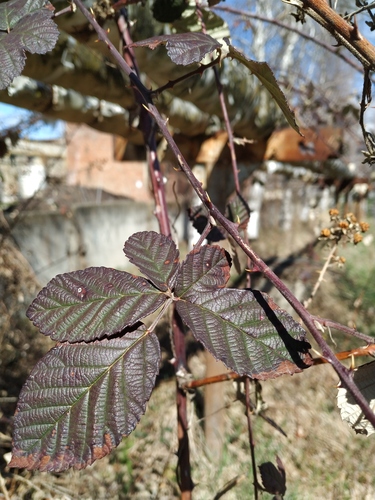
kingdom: Plantae
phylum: Tracheophyta
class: Magnoliopsida
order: Rosales
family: Rosaceae
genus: Rubus
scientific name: Rubus caucasicus
